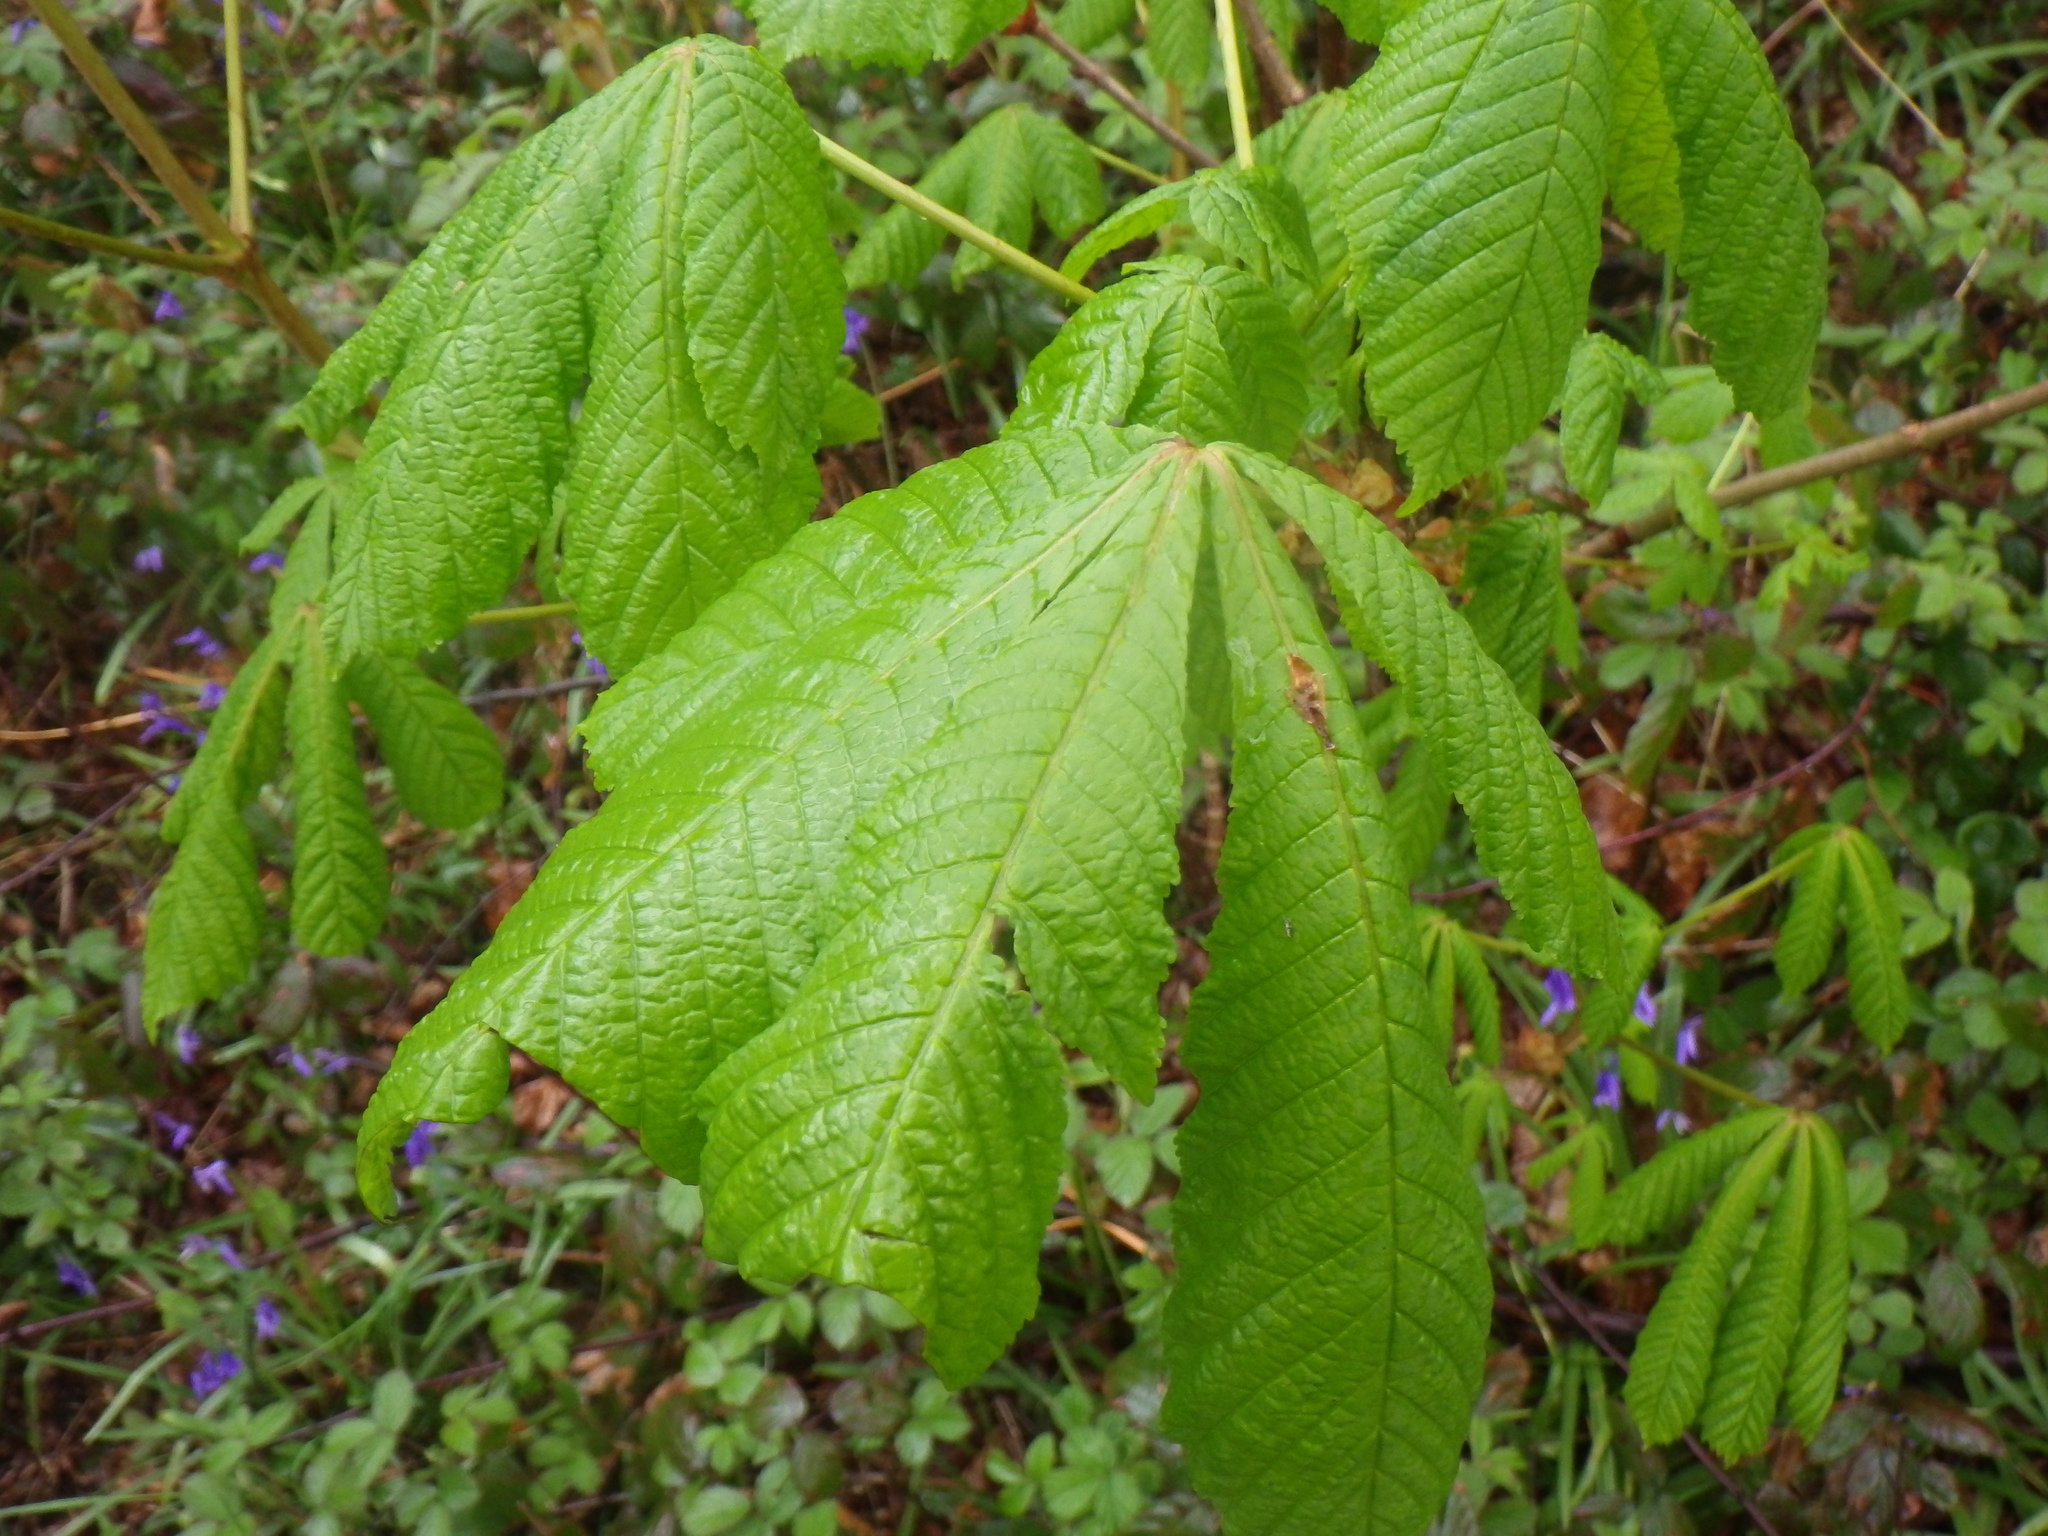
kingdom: Plantae
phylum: Tracheophyta
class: Magnoliopsida
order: Sapindales
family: Sapindaceae
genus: Aesculus
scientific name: Aesculus hippocastanum
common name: Horse-chestnut
